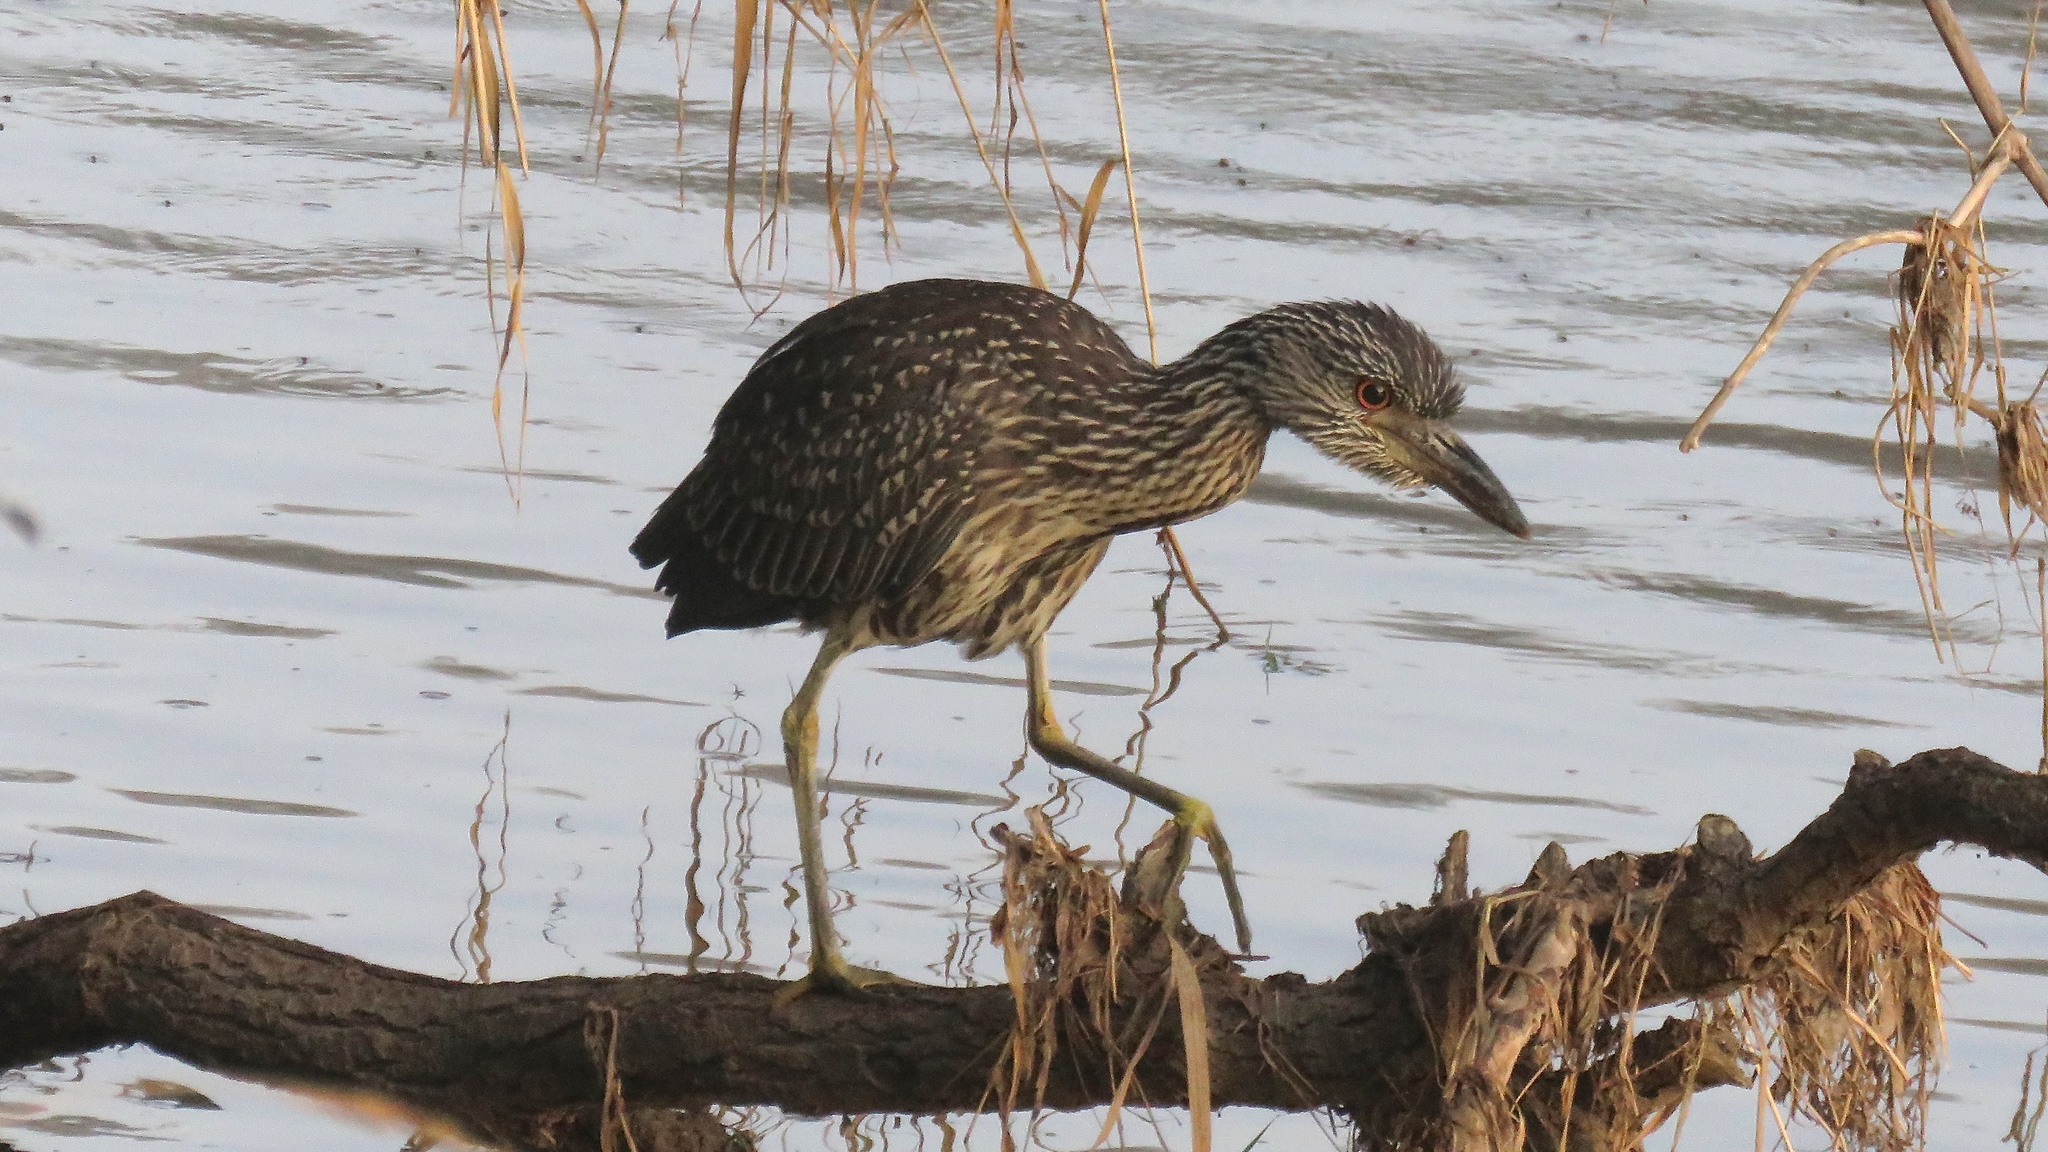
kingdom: Animalia
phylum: Chordata
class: Aves
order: Pelecaniformes
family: Ardeidae
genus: Nyctanassa
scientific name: Nyctanassa violacea
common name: Yellow-crowned night heron
